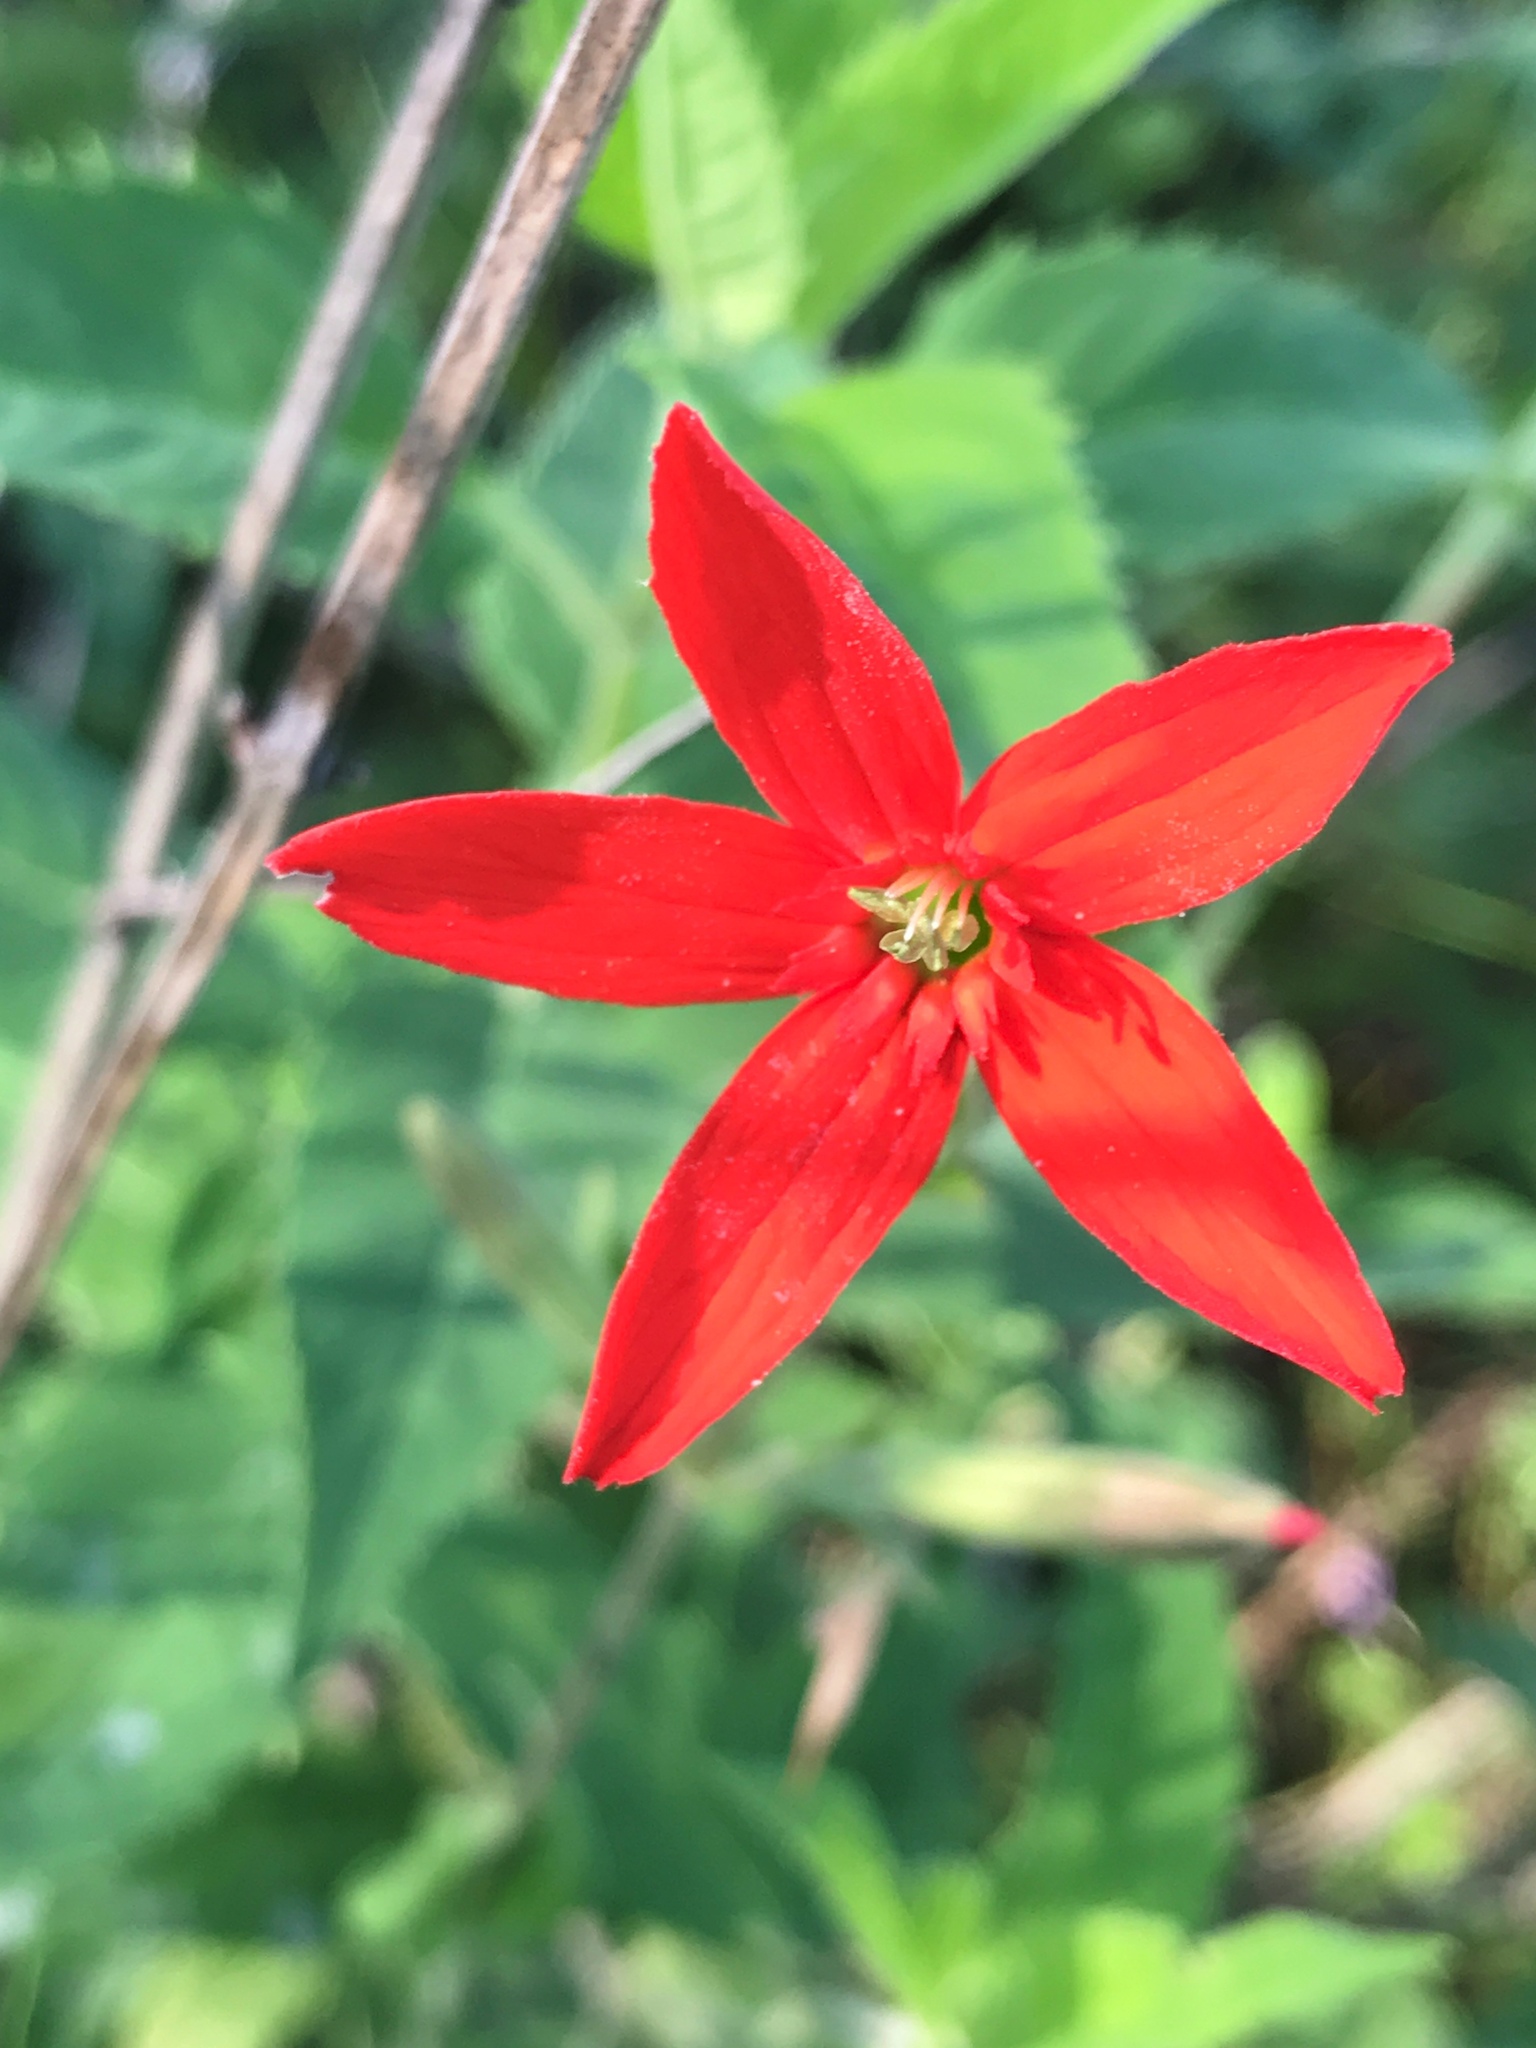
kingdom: Plantae
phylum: Tracheophyta
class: Magnoliopsida
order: Caryophyllales
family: Caryophyllaceae
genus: Silene
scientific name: Silene regia
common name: Royal catchfly
